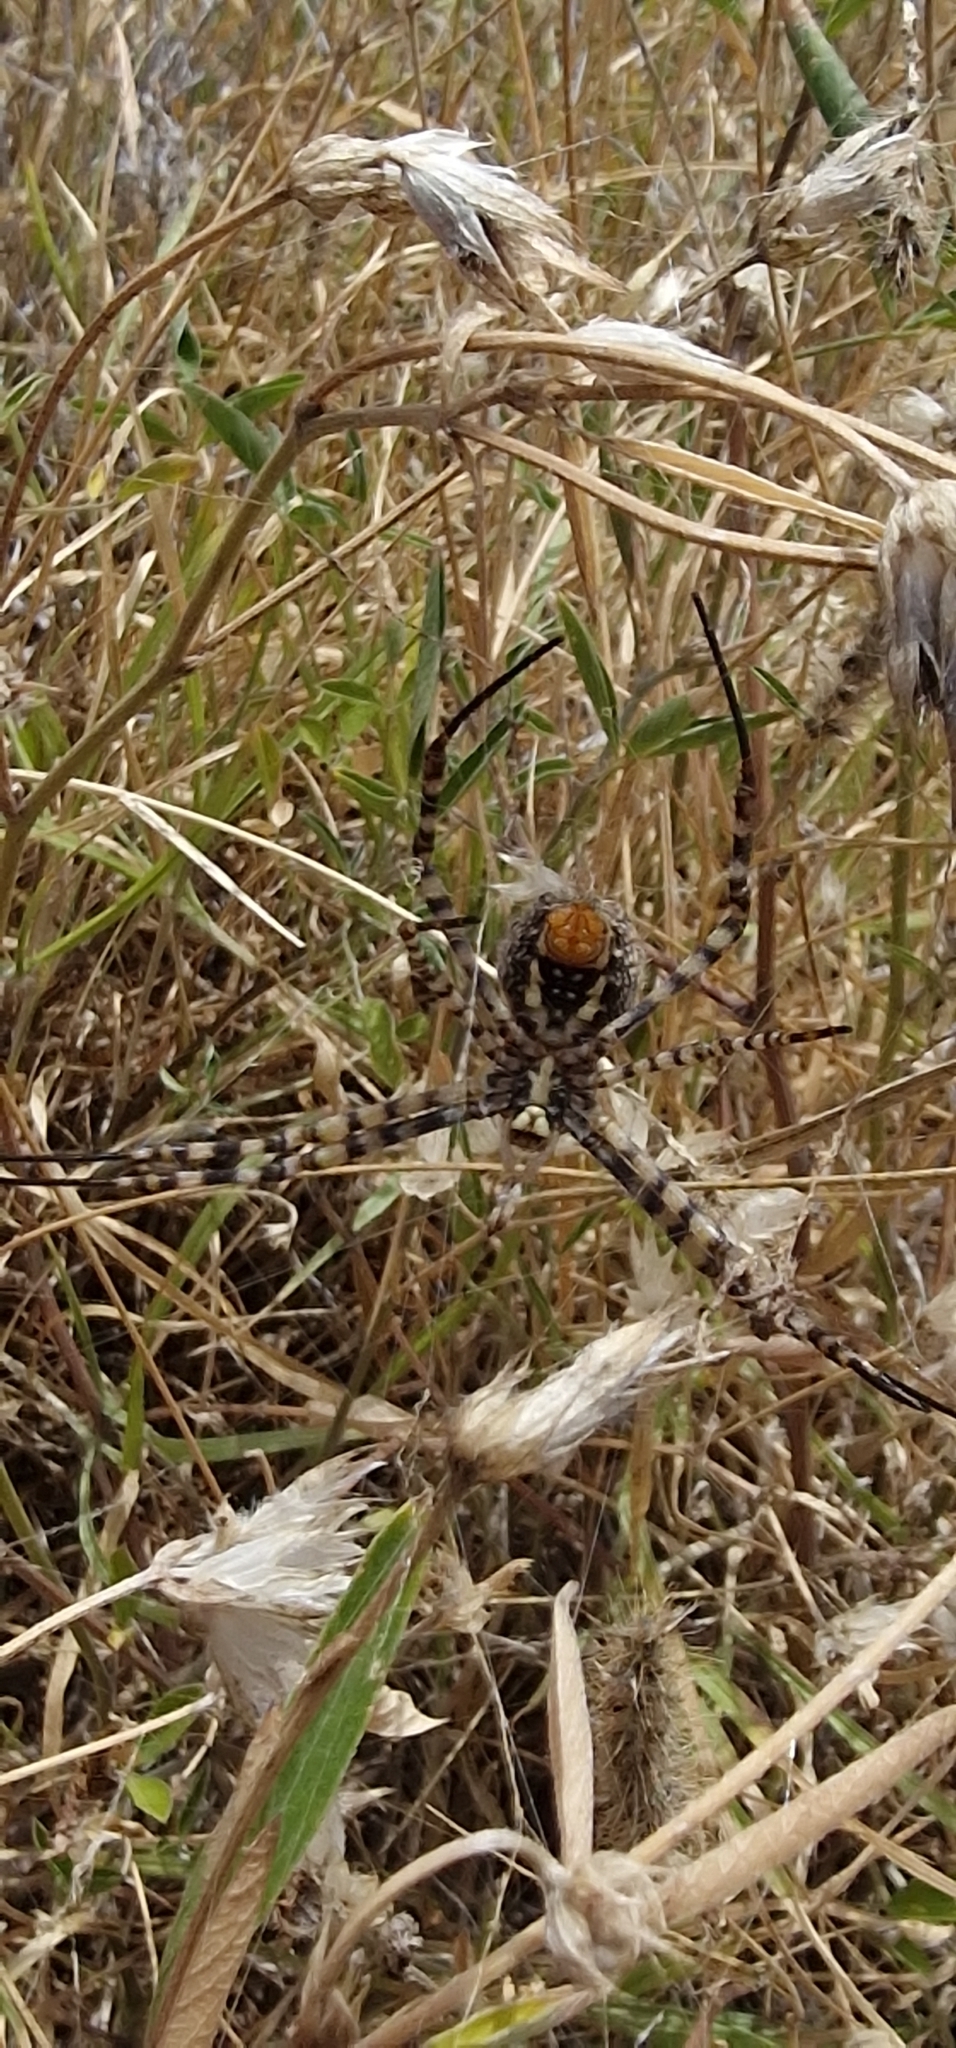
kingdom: Animalia
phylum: Arthropoda
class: Arachnida
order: Araneae
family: Araneidae
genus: Argiope
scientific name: Argiope trifasciata
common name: Banded garden spider
